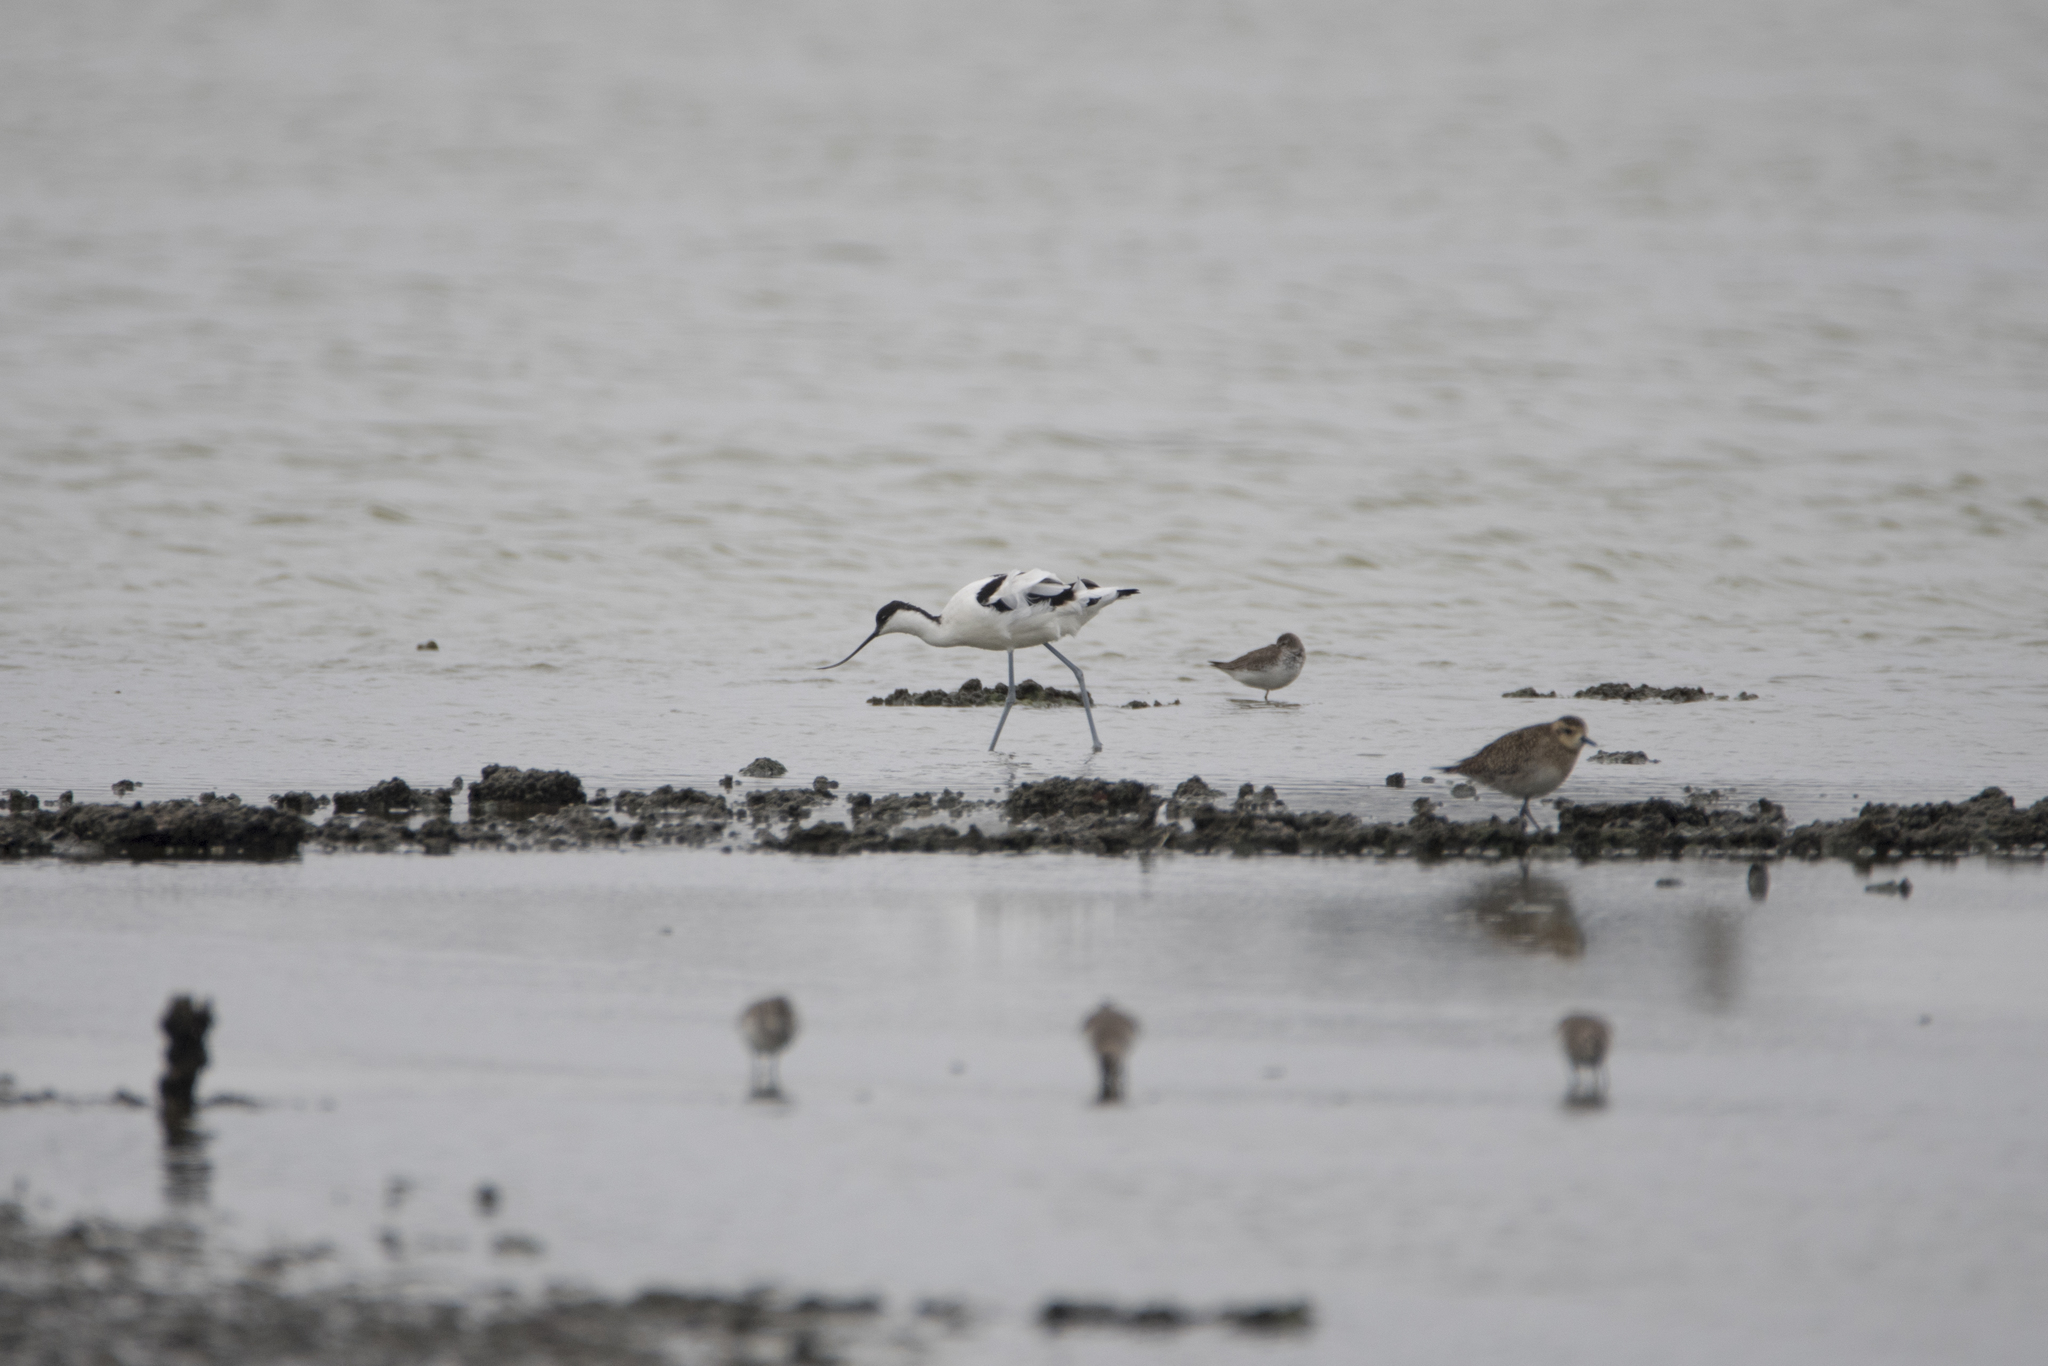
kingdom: Animalia
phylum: Chordata
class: Aves
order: Charadriiformes
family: Recurvirostridae
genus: Recurvirostra
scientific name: Recurvirostra avosetta
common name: Pied avocet
